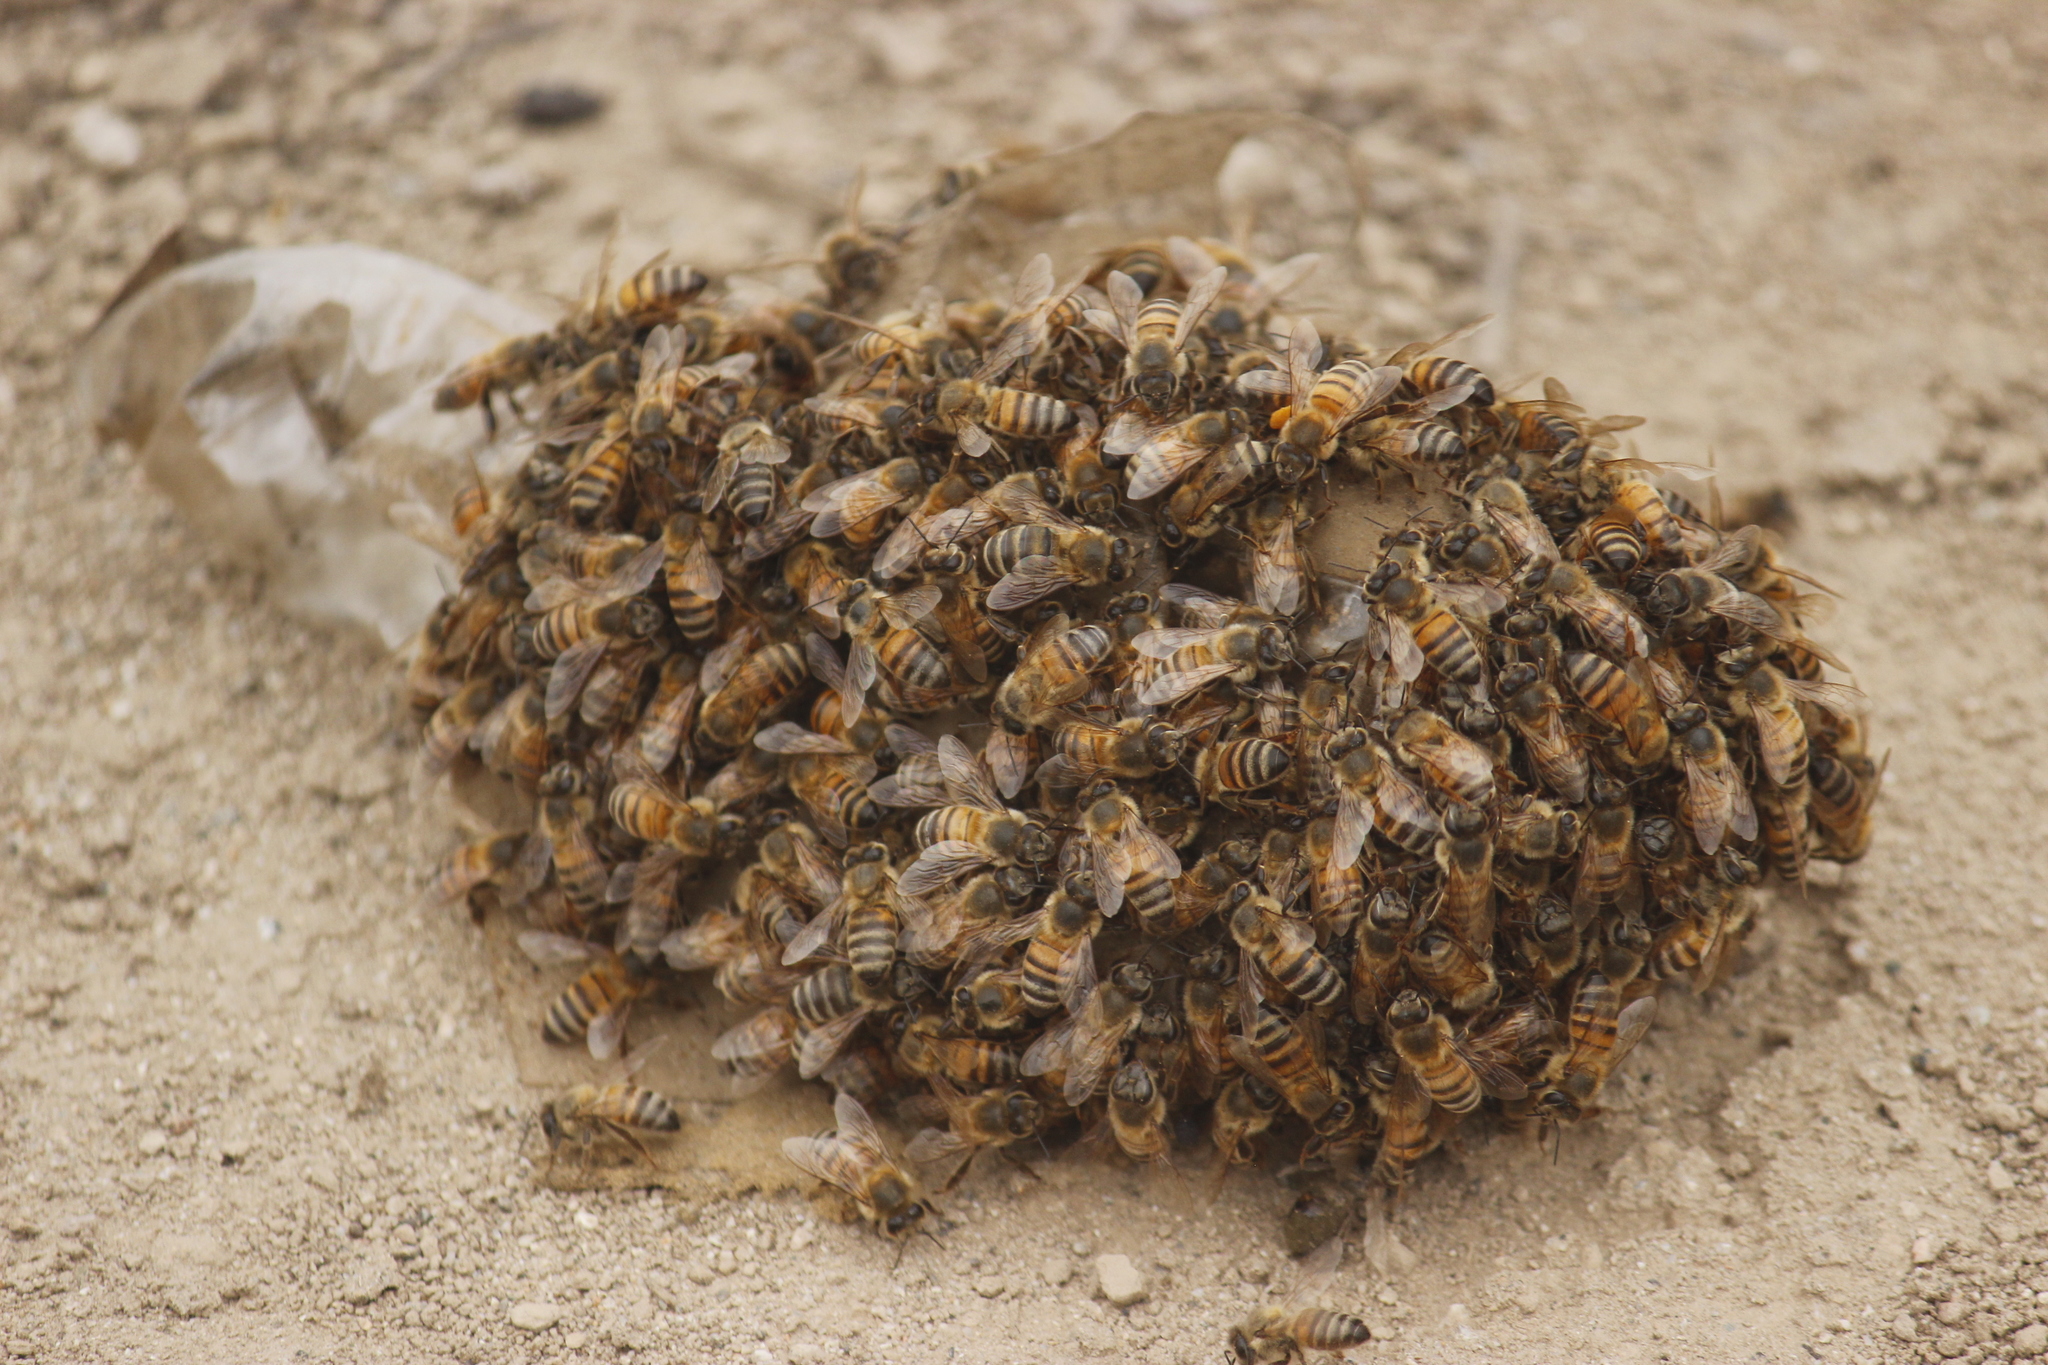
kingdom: Animalia
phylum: Arthropoda
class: Insecta
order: Hymenoptera
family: Apidae
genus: Apis
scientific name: Apis mellifera
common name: Honey bee
